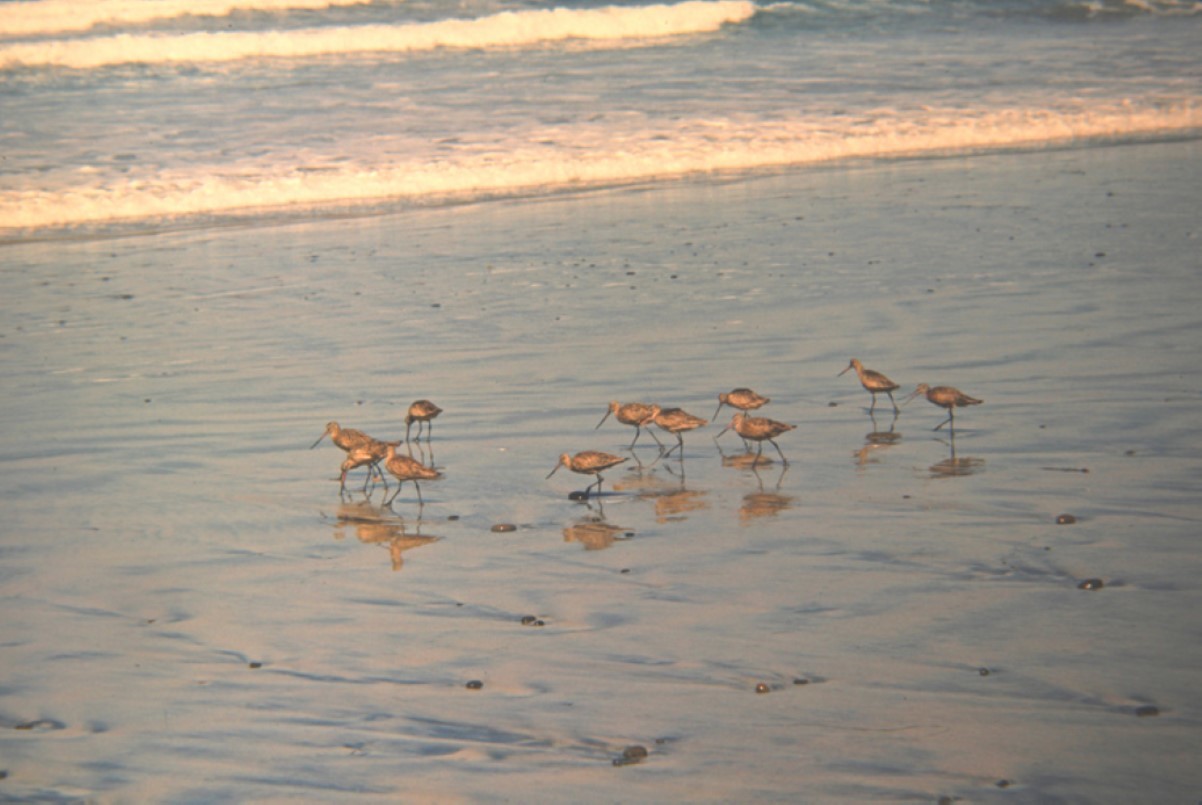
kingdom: Animalia
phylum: Chordata
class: Aves
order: Charadriiformes
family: Scolopacidae
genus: Limosa
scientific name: Limosa fedoa
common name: Marbled godwit
